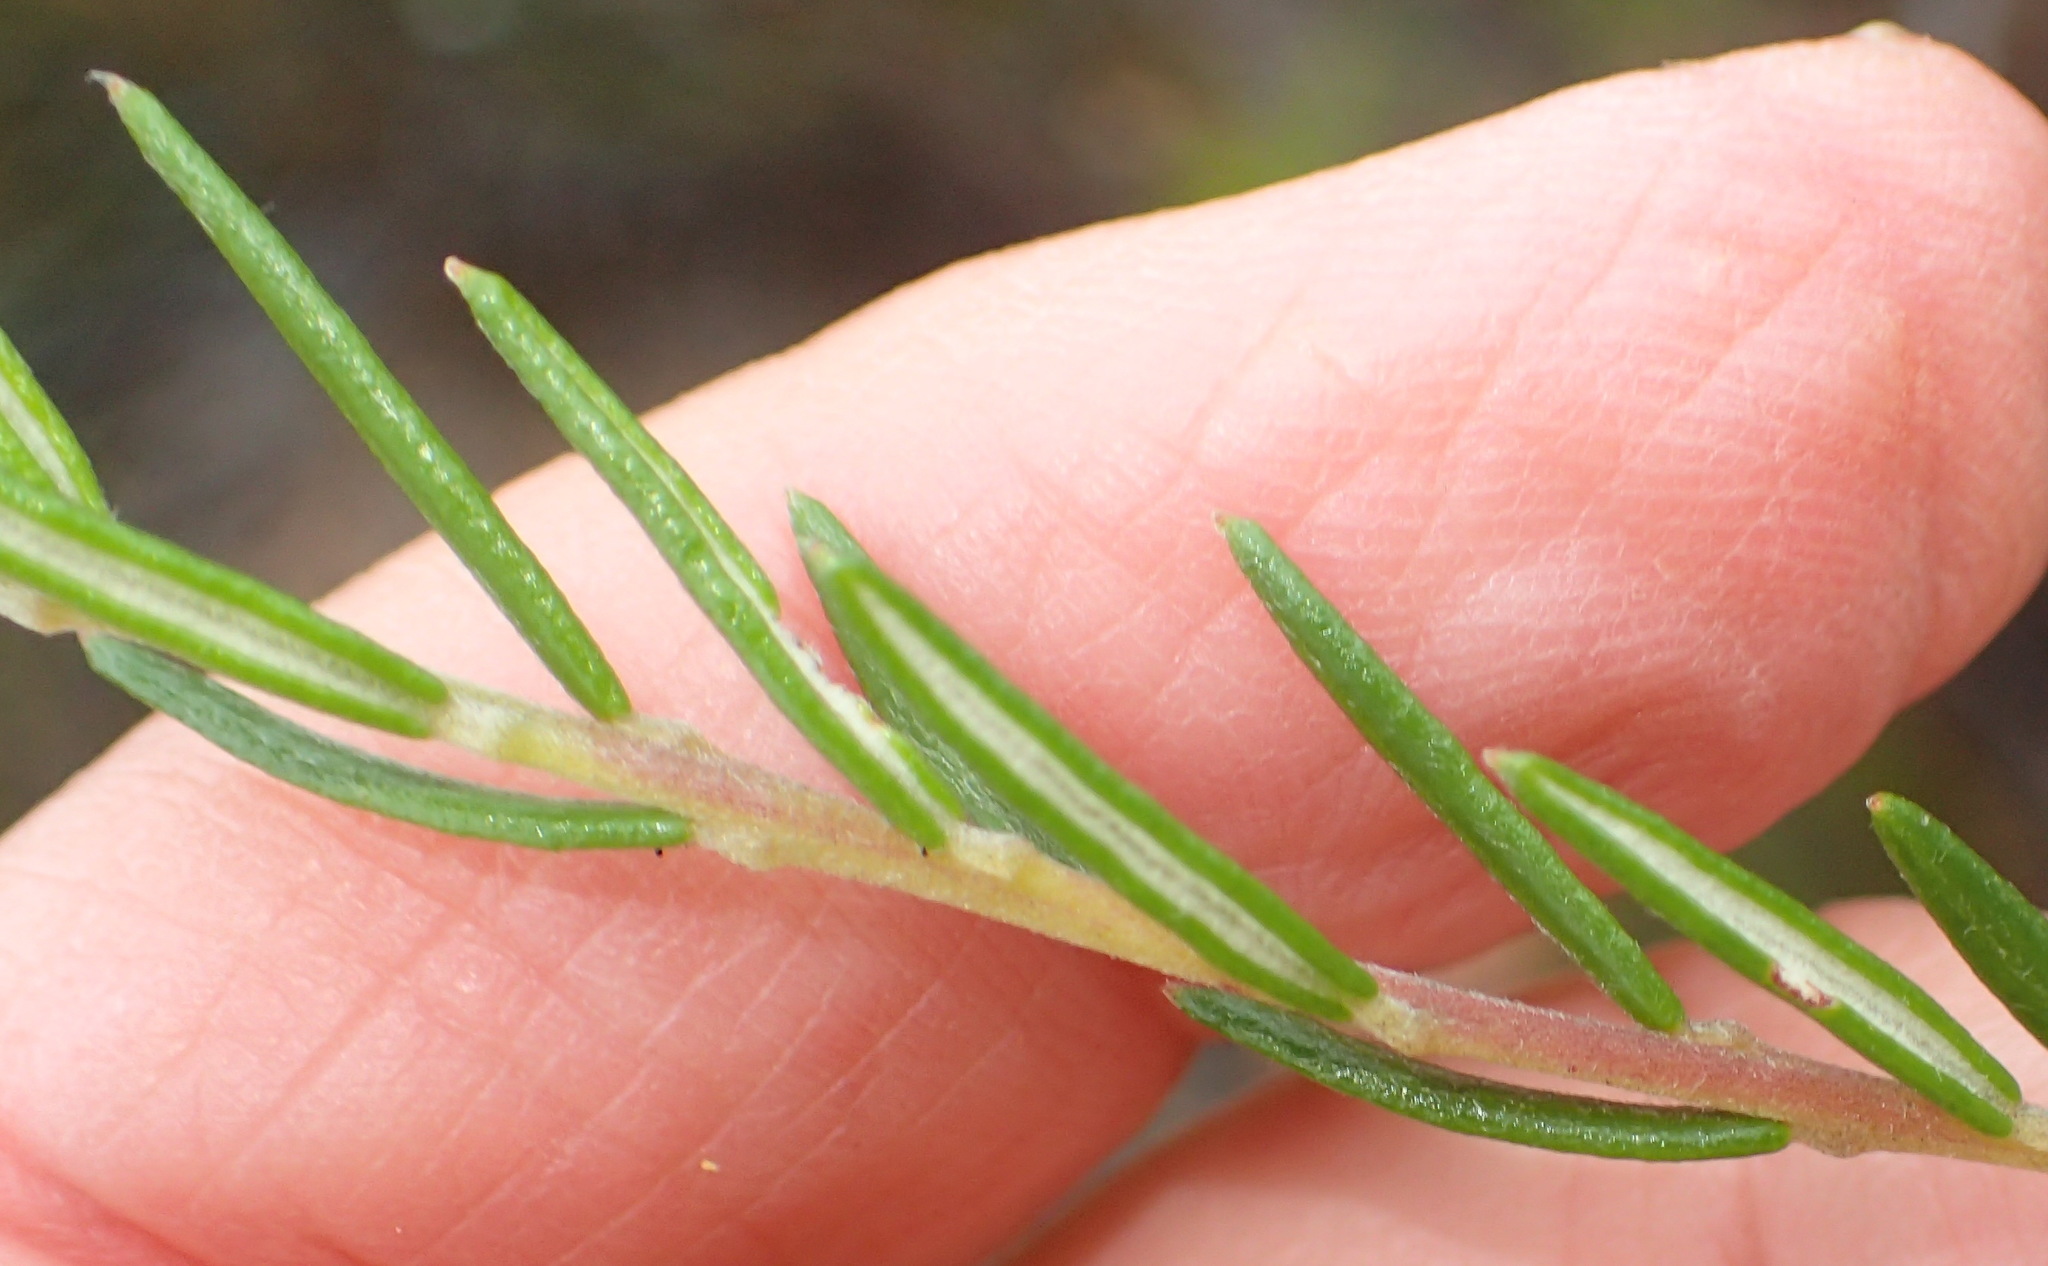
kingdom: Plantae
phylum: Tracheophyta
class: Magnoliopsida
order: Rosales
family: Rhamnaceae
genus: Phylica
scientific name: Phylica imberbis
